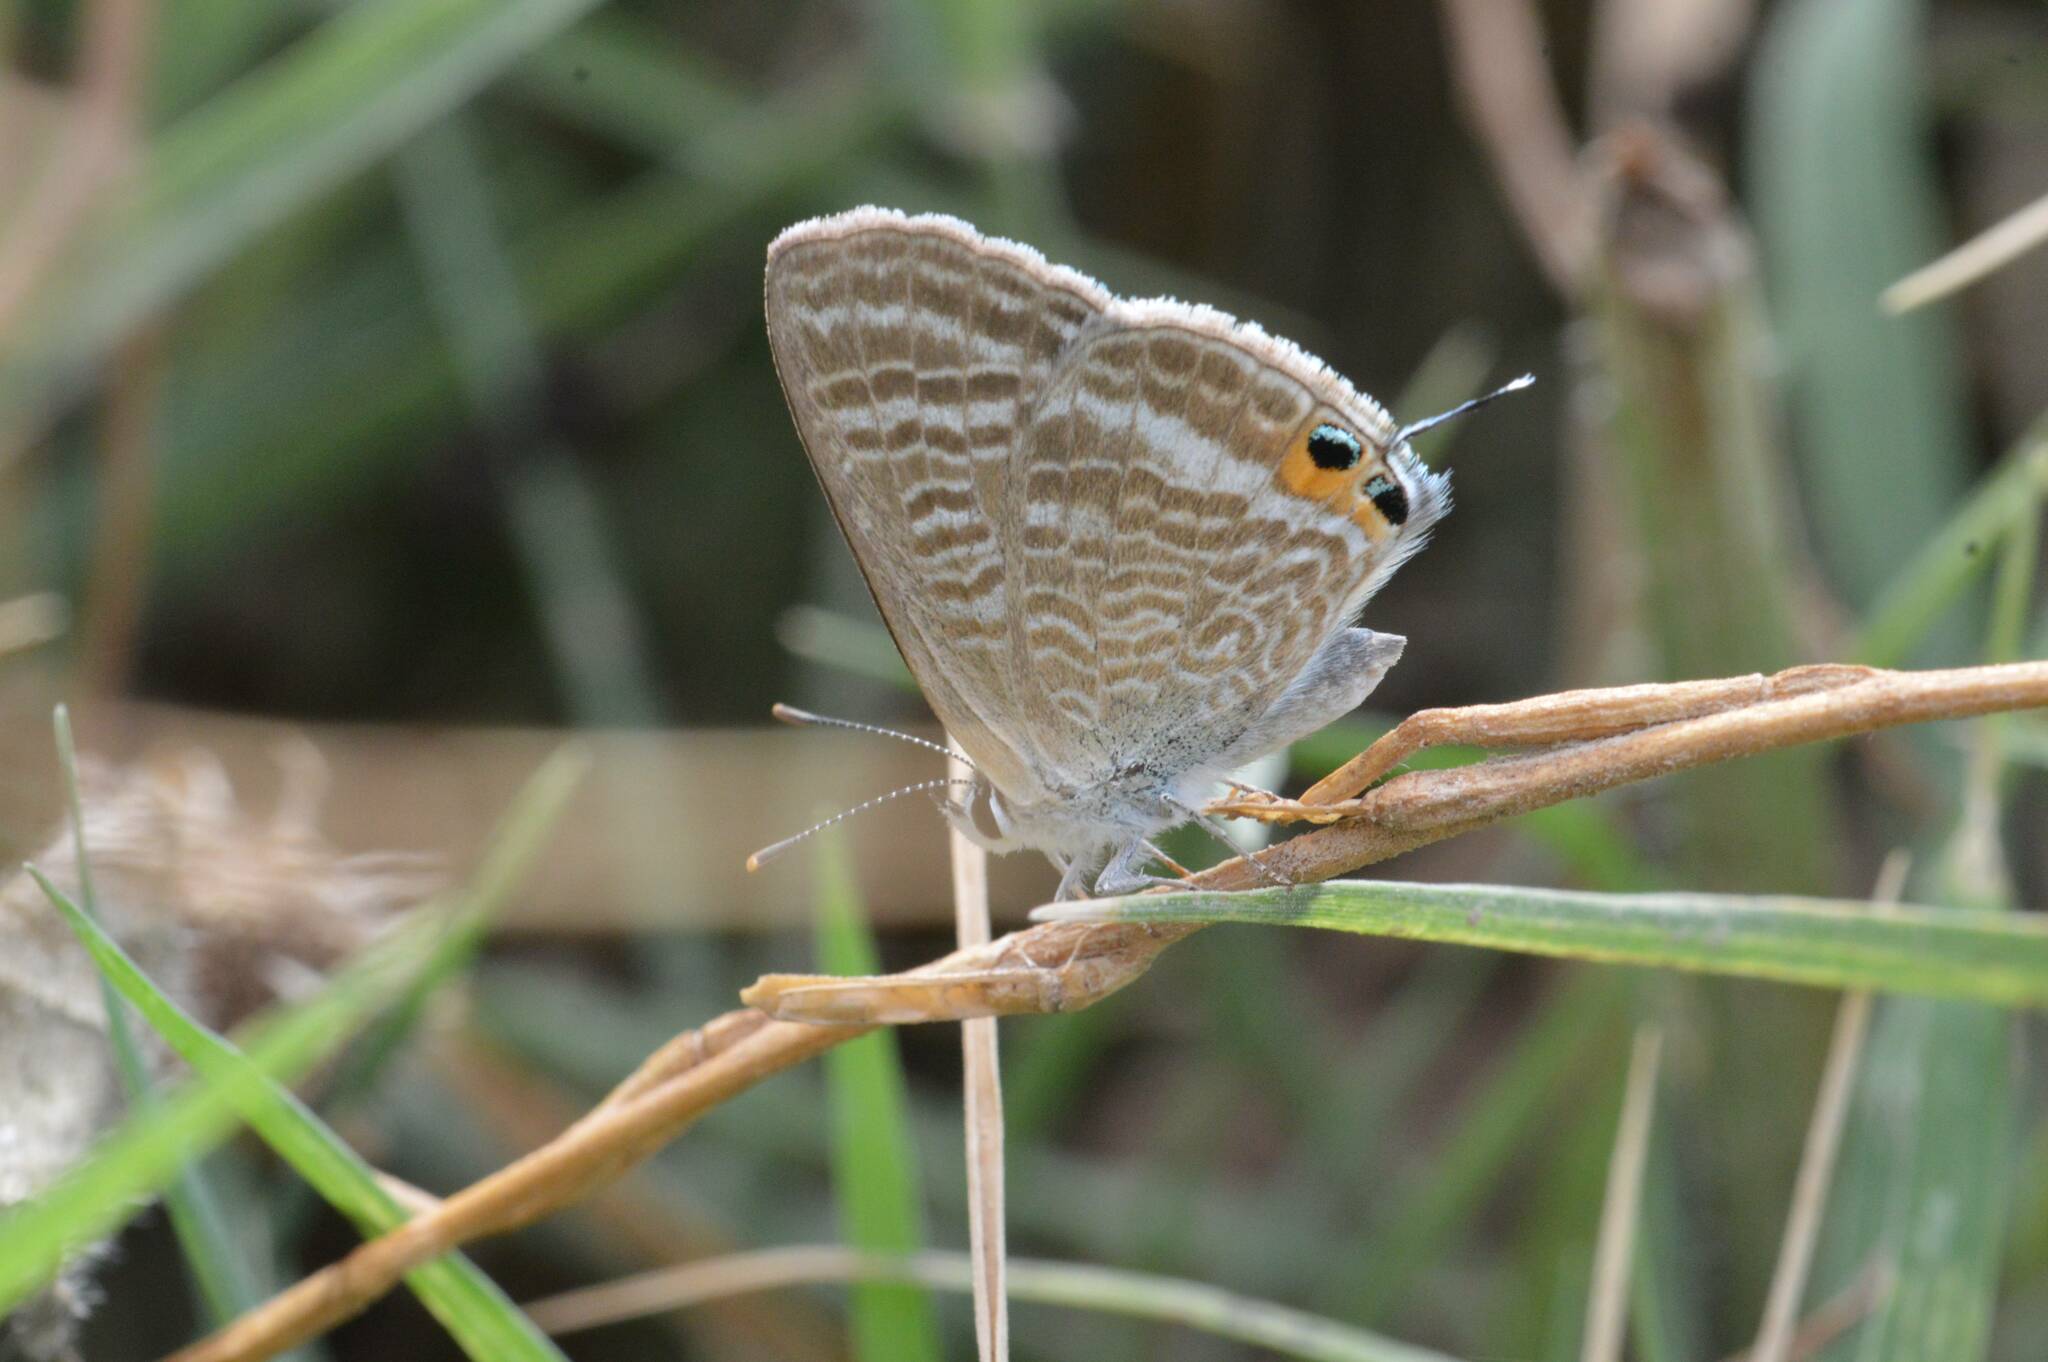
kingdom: Animalia
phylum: Arthropoda
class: Insecta
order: Lepidoptera
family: Lycaenidae
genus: Lampides
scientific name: Lampides boeticus
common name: Long-tailed blue
